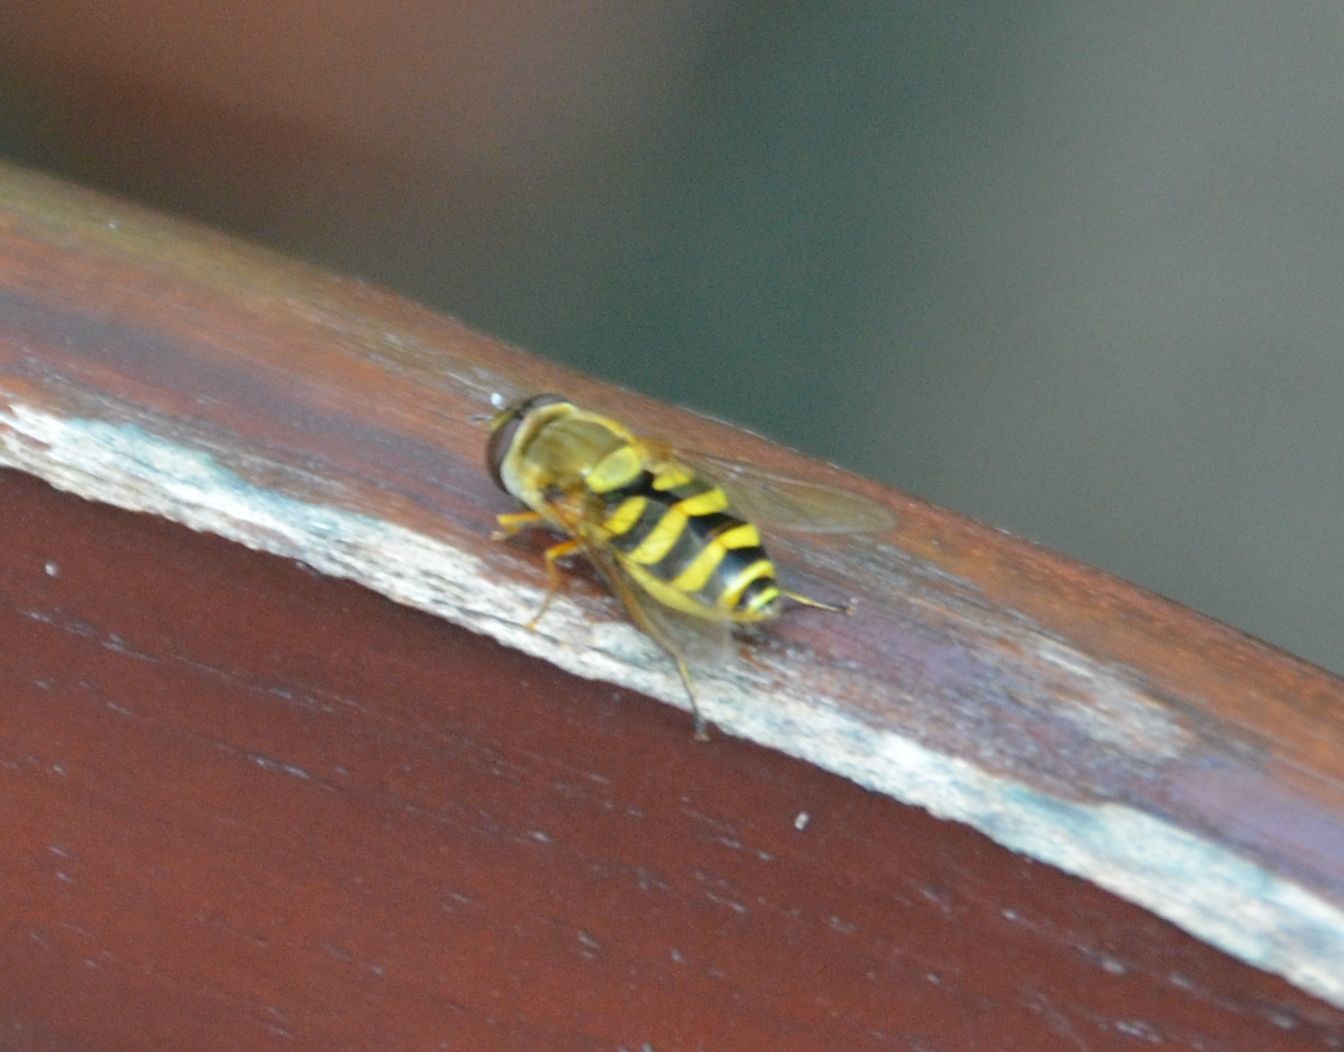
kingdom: Animalia
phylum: Arthropoda
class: Insecta
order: Diptera
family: Syrphidae
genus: Syrphus
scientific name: Syrphus ribesii
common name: Common flower fly
